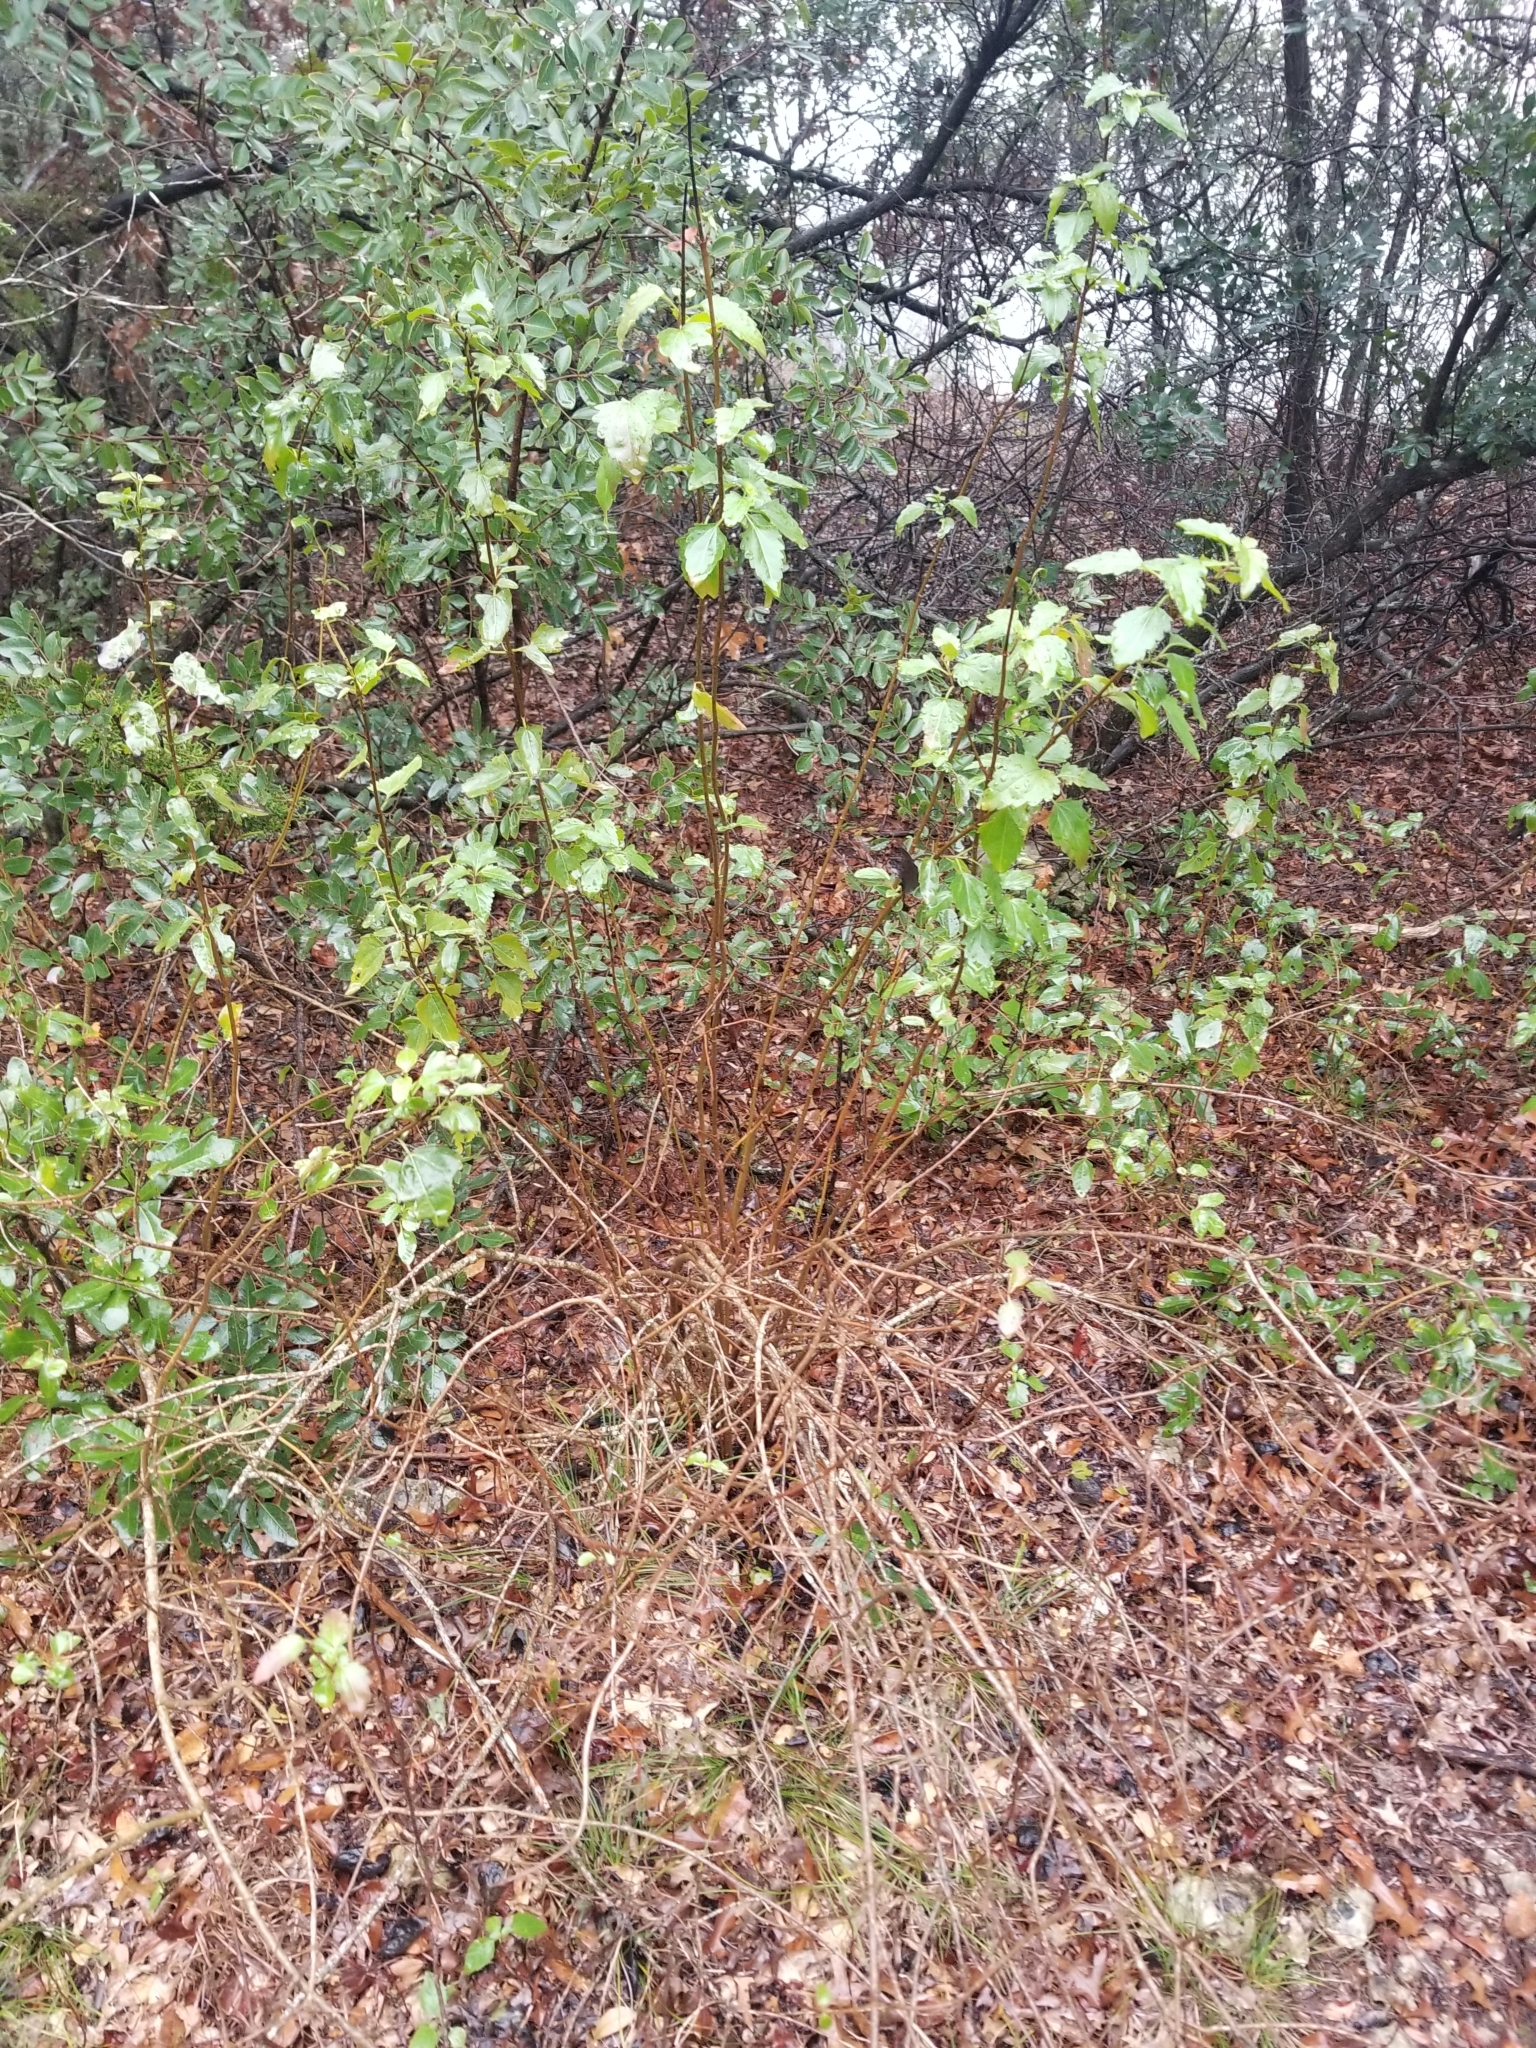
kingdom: Plantae
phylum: Tracheophyta
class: Magnoliopsida
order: Asterales
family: Asteraceae
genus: Ageratina
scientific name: Ageratina havanensis
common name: Havana snakeroot
